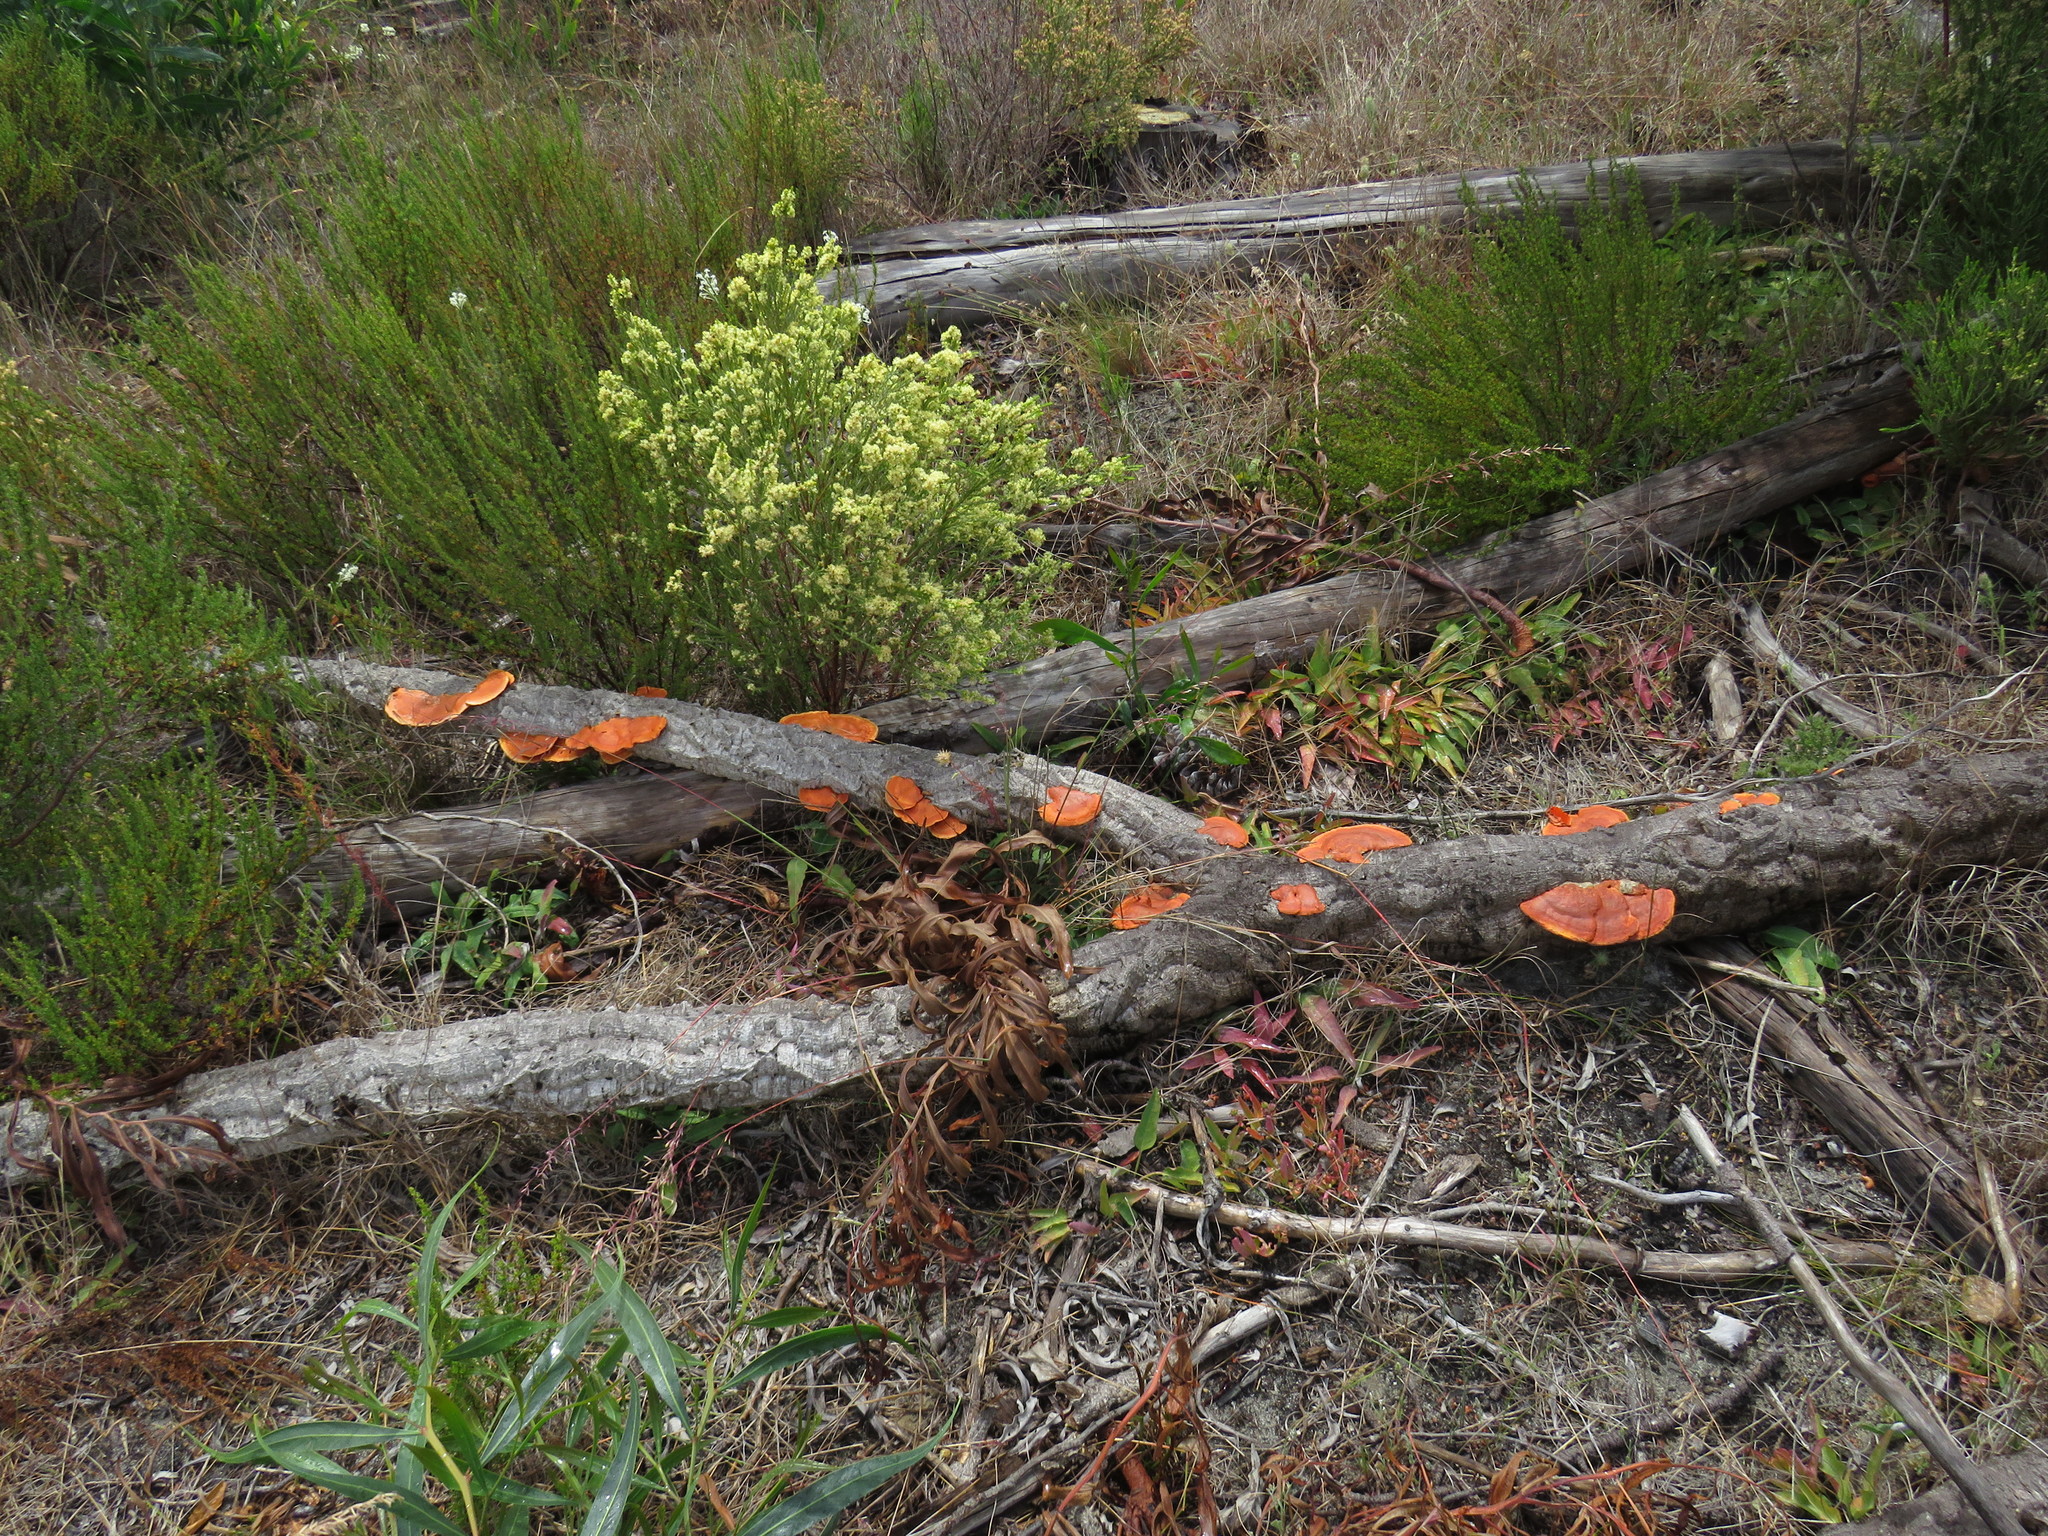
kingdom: Fungi
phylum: Basidiomycota
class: Agaricomycetes
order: Polyporales
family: Polyporaceae
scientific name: Polyporaceae
